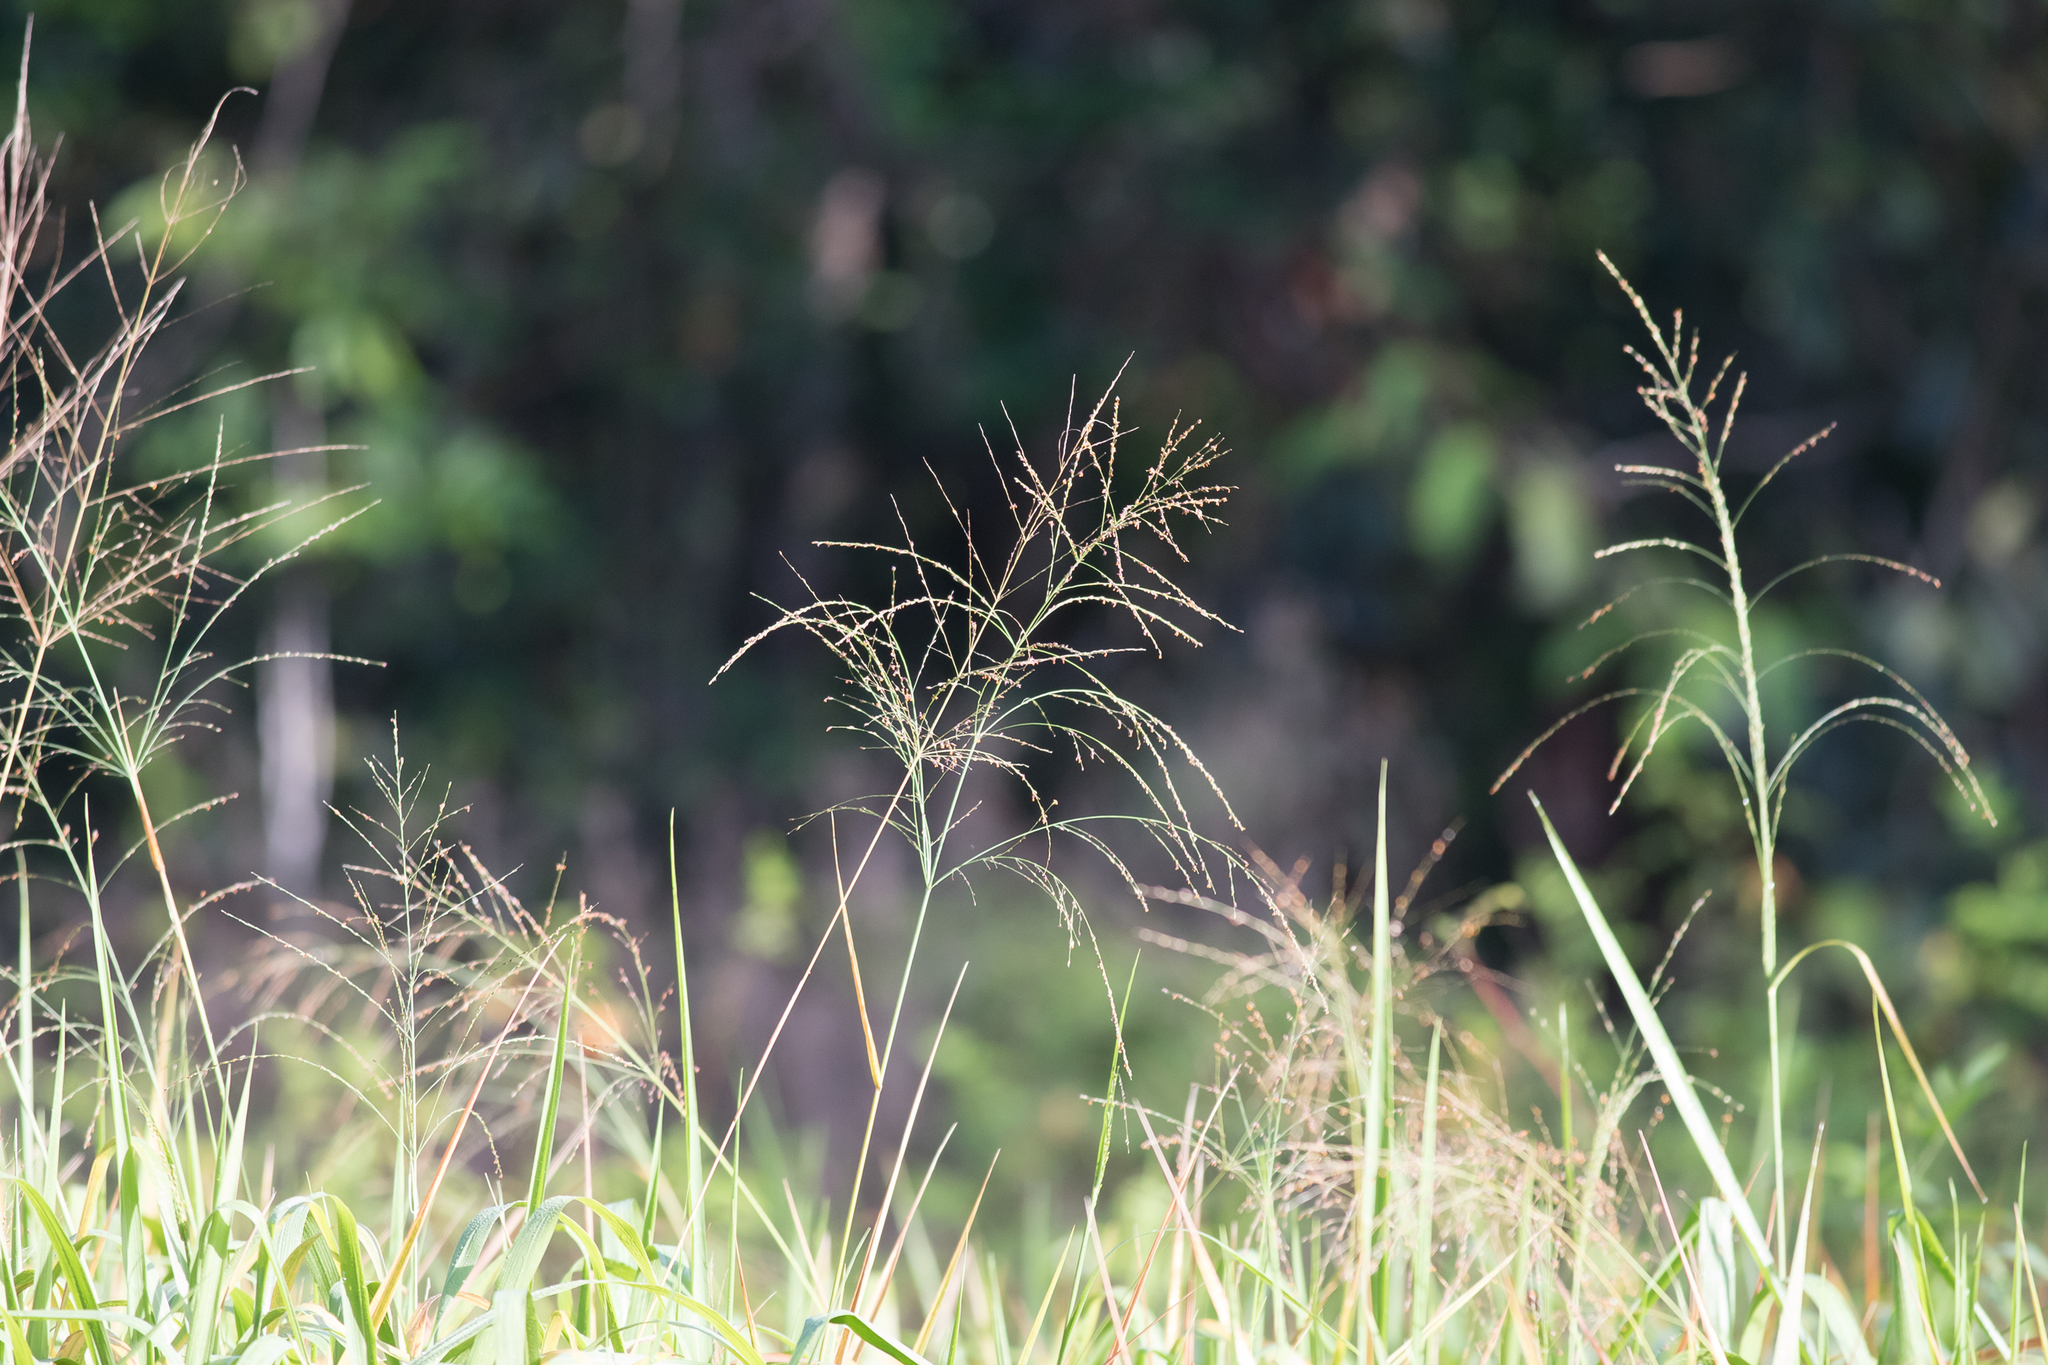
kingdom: Plantae
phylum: Tracheophyta
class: Liliopsida
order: Poales
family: Poaceae
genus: Megathyrsus
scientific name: Megathyrsus maximus
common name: Guineagrass
